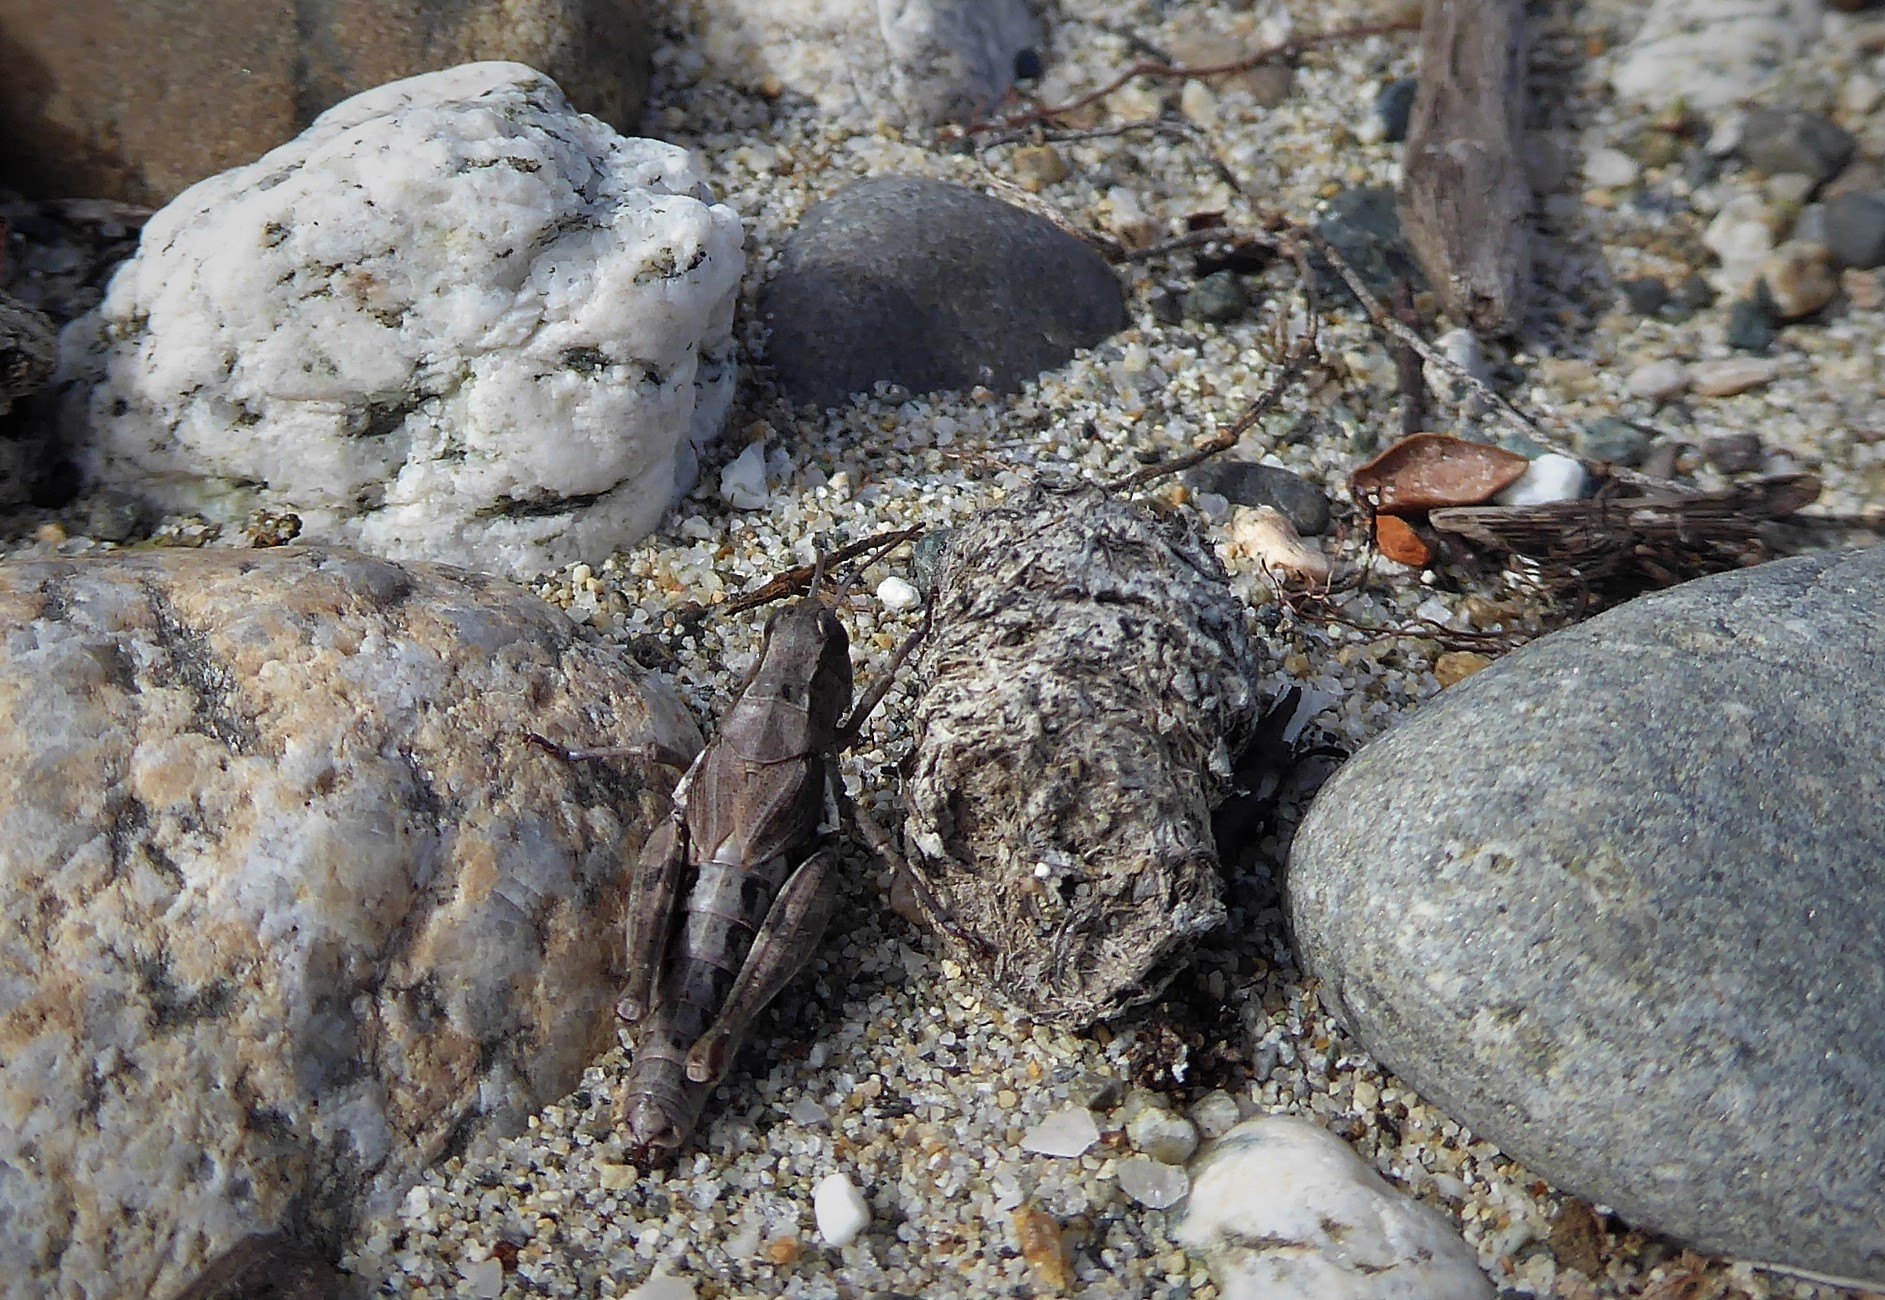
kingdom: Animalia
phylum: Arthropoda
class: Insecta
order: Orthoptera
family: Acrididae
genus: Phaulacridium
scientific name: Phaulacridium marginale
